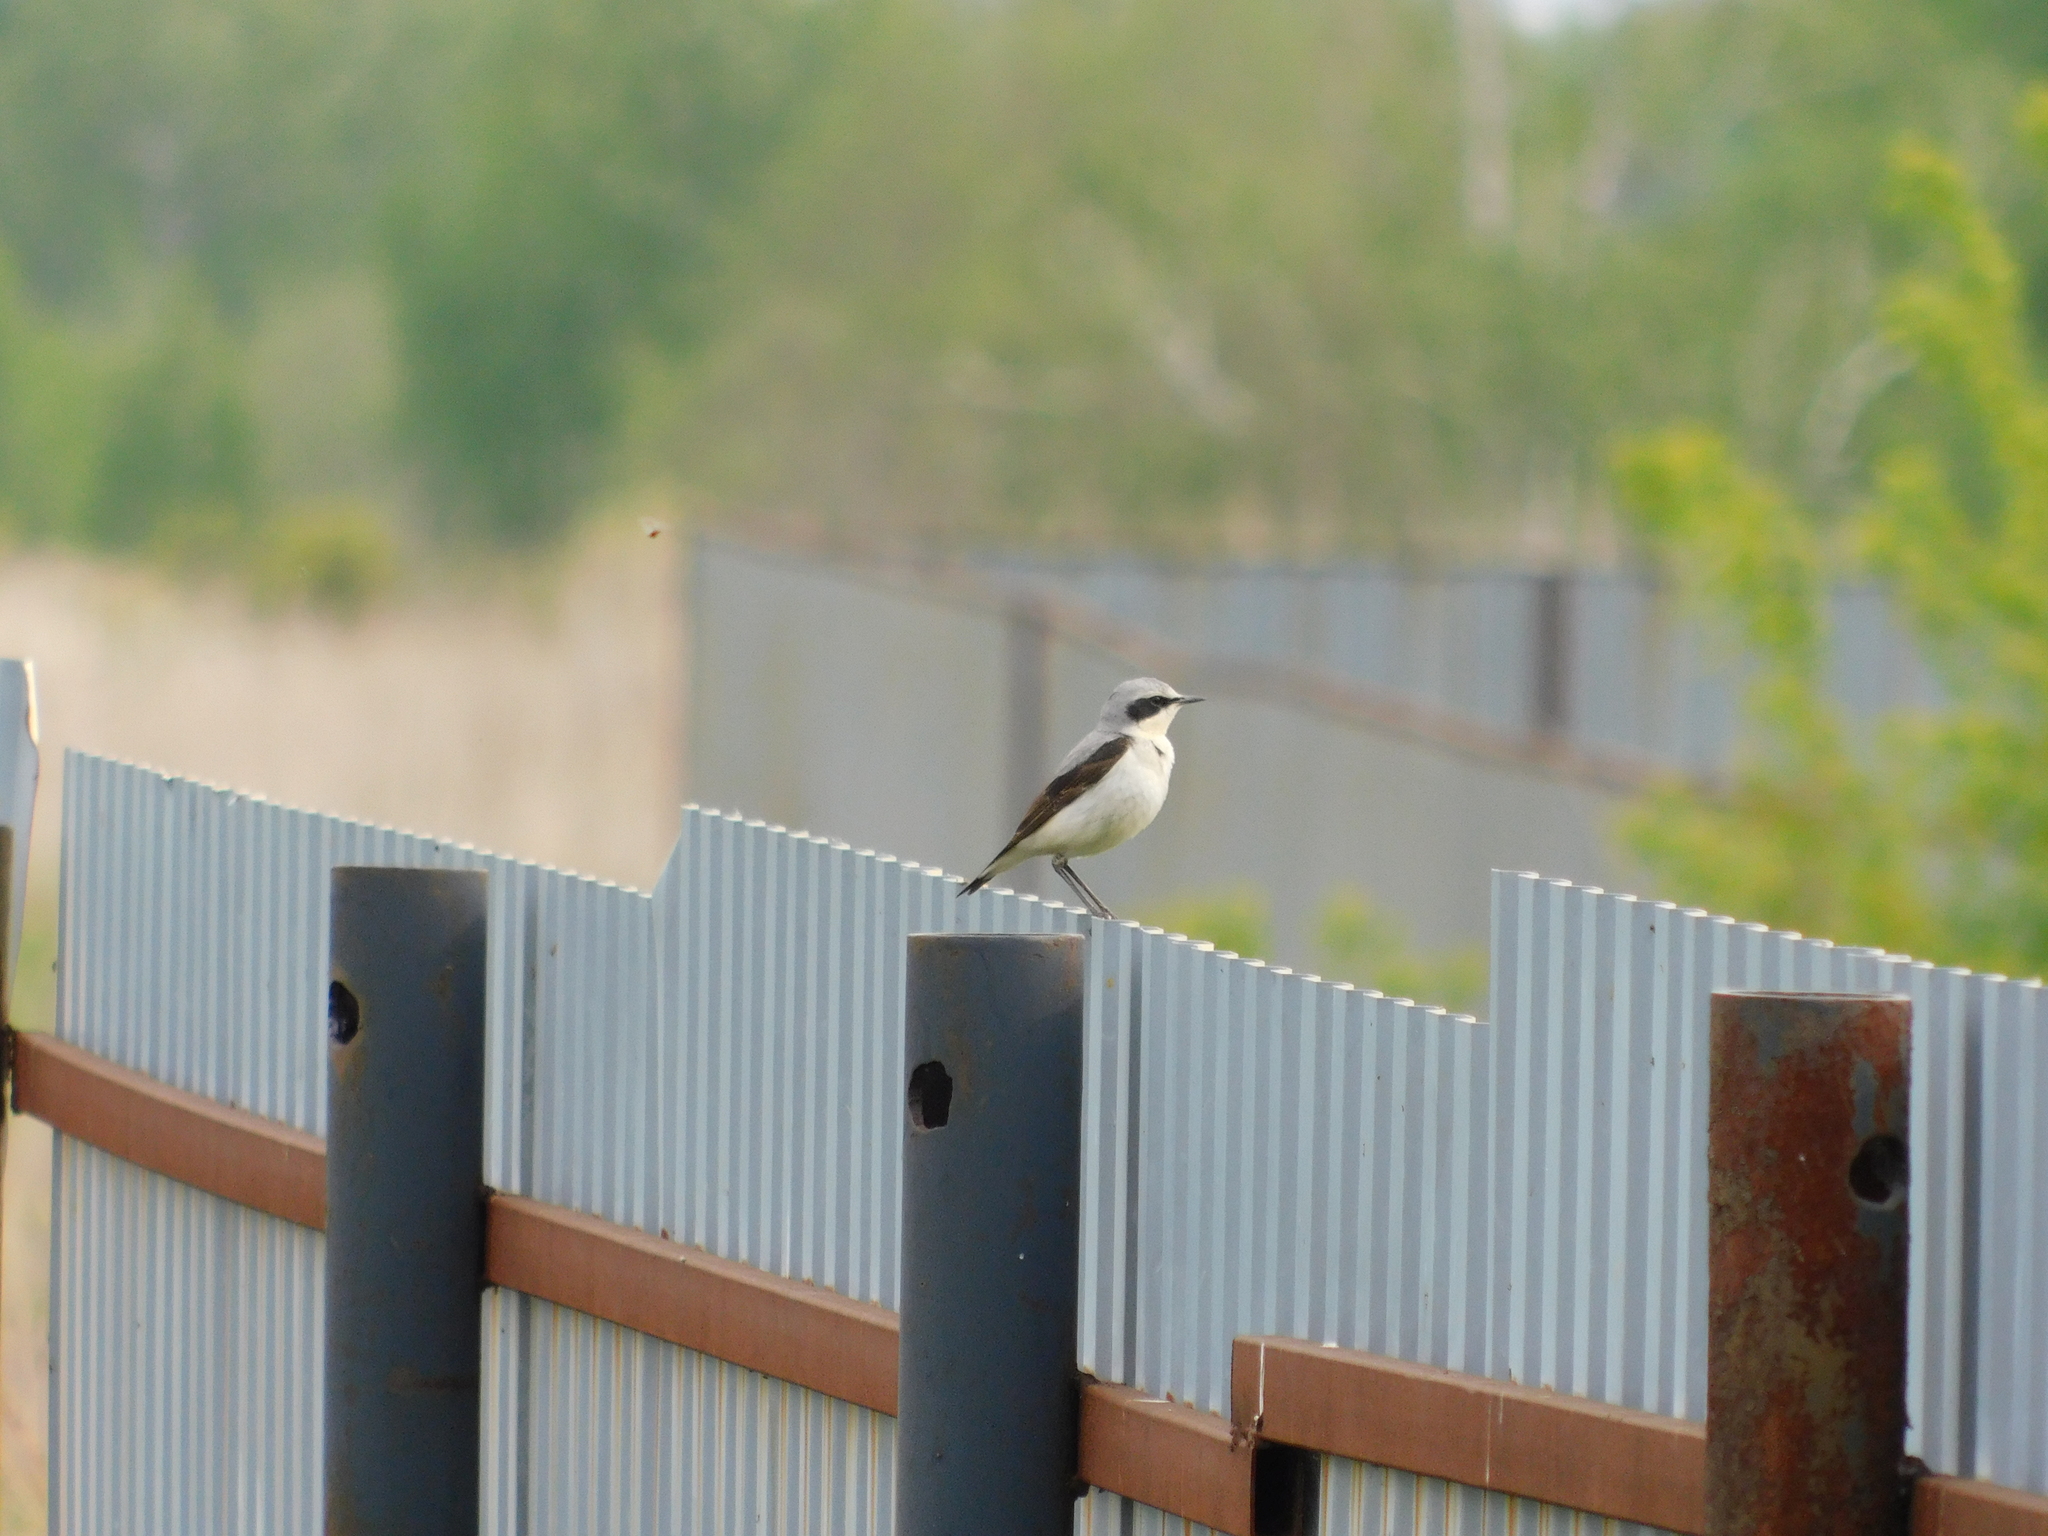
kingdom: Animalia
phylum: Chordata
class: Aves
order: Passeriformes
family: Muscicapidae
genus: Oenanthe
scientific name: Oenanthe oenanthe
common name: Northern wheatear
